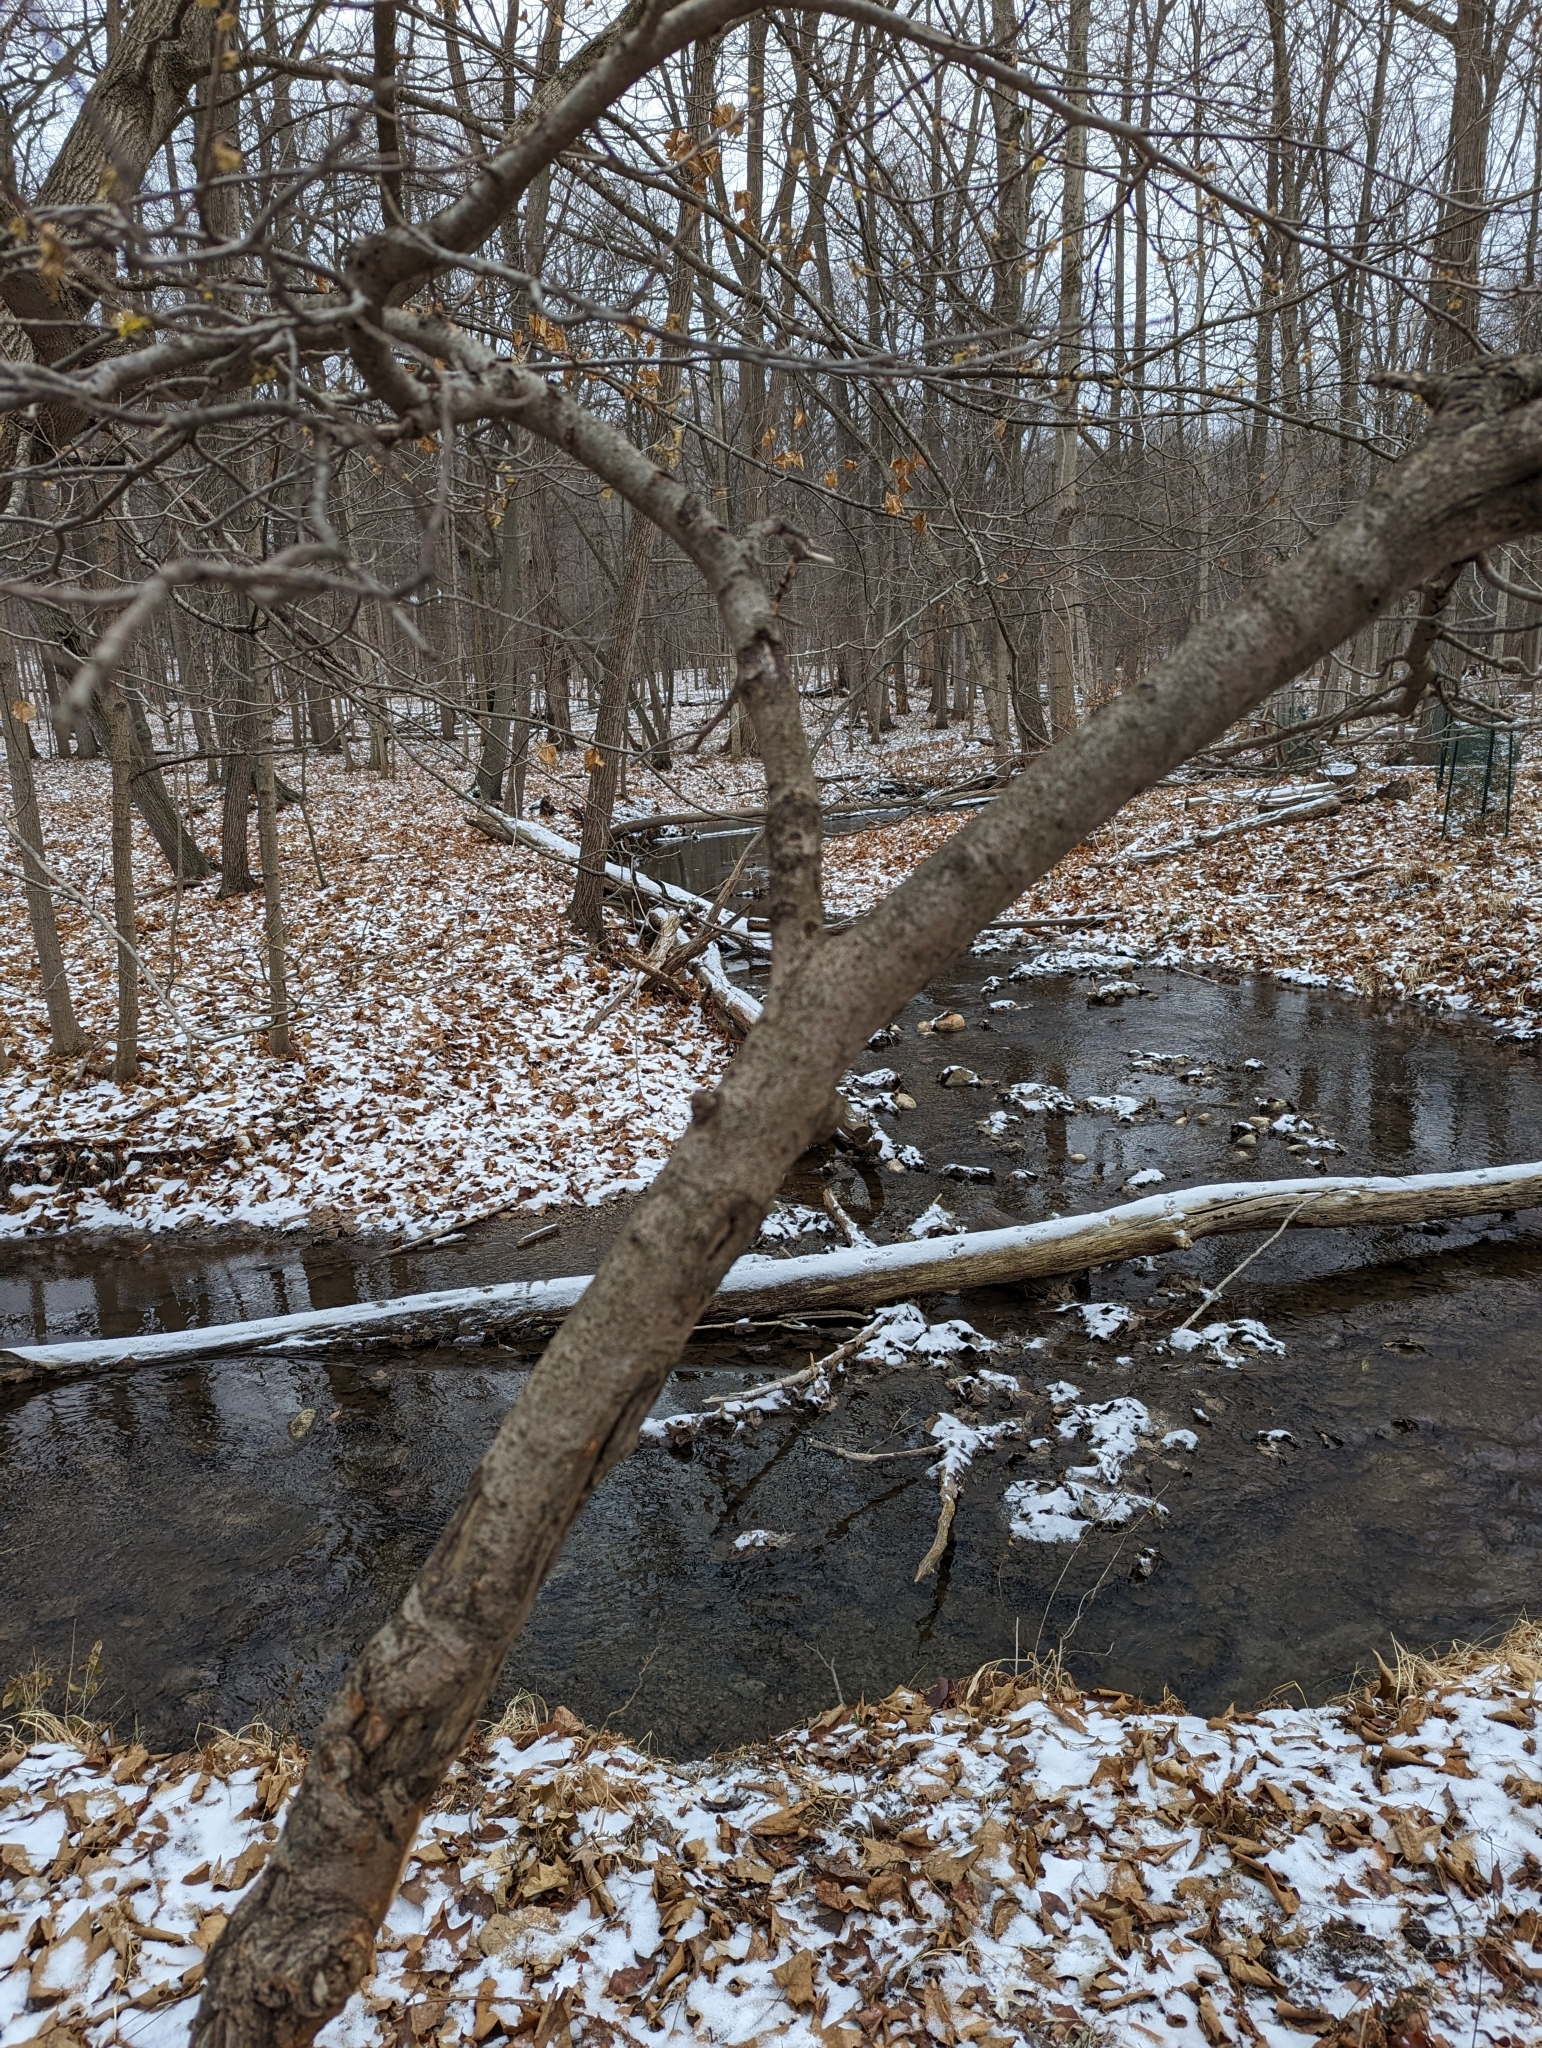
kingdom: Plantae
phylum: Tracheophyta
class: Magnoliopsida
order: Saxifragales
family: Hamamelidaceae
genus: Hamamelis
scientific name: Hamamelis virginiana
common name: Witch-hazel
